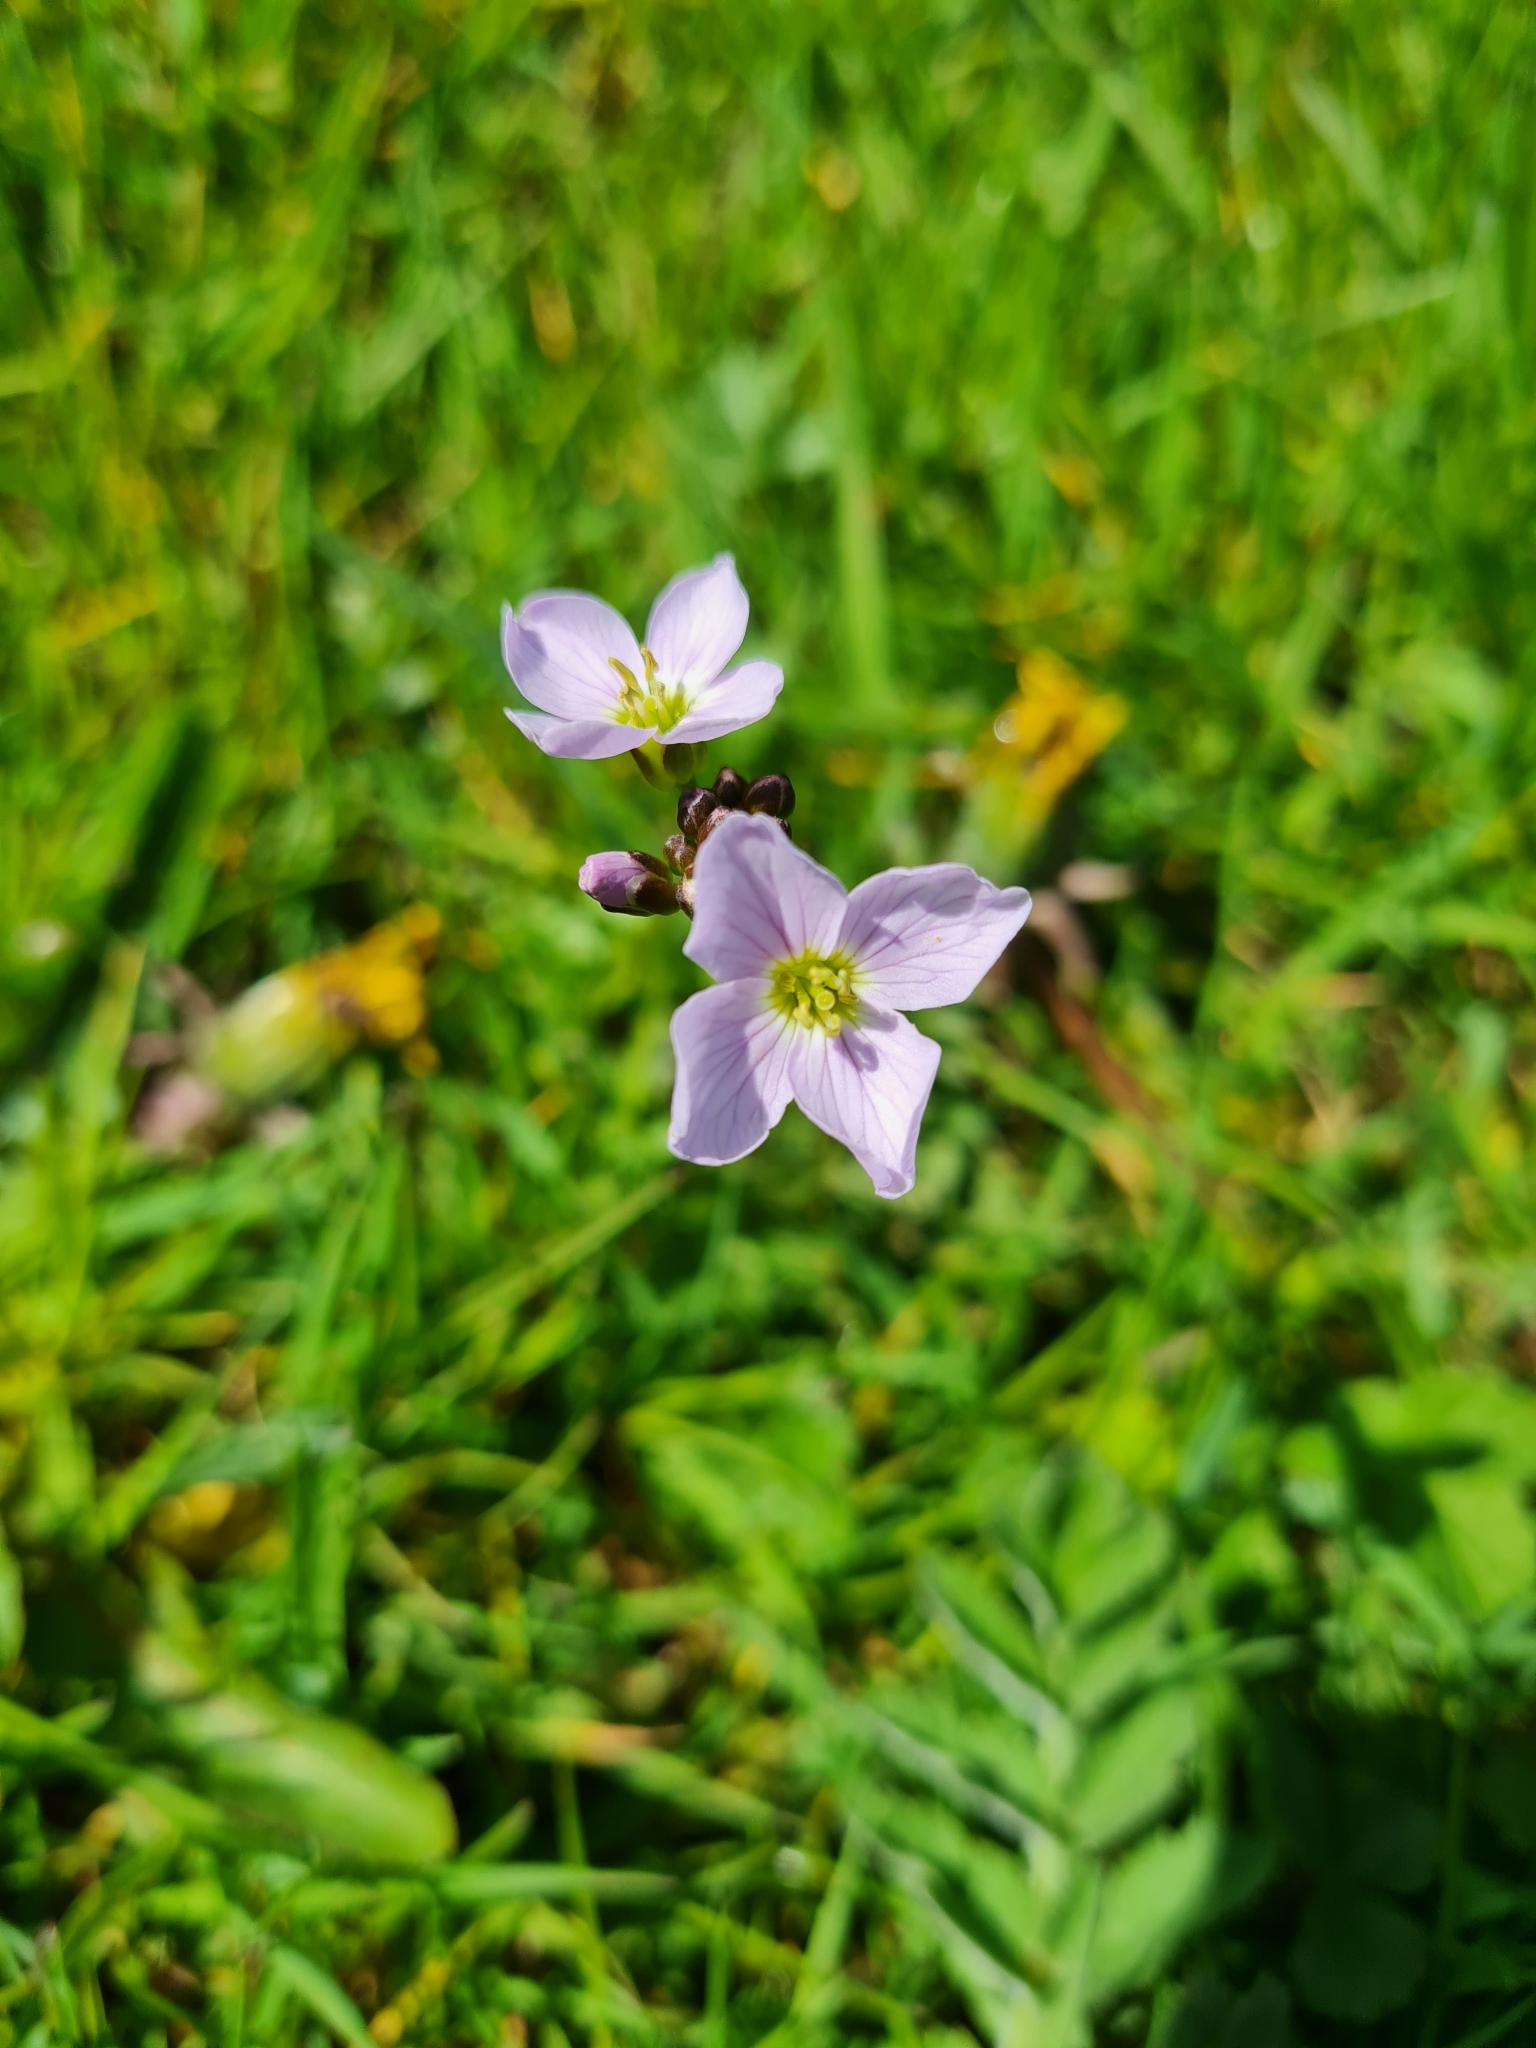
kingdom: Plantae
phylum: Tracheophyta
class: Magnoliopsida
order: Brassicales
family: Brassicaceae
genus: Cardamine
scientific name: Cardamine pratensis
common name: Cuckoo flower
